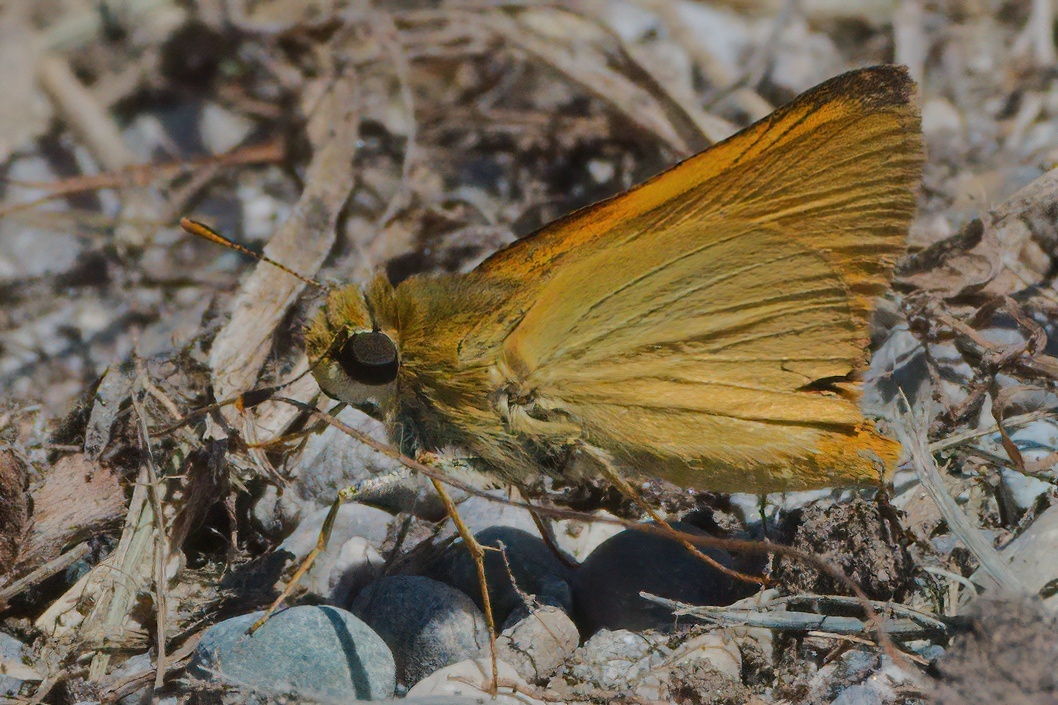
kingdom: Animalia
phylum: Arthropoda
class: Insecta
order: Lepidoptera
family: Hesperiidae
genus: Atrytone
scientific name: Atrytone delaware
